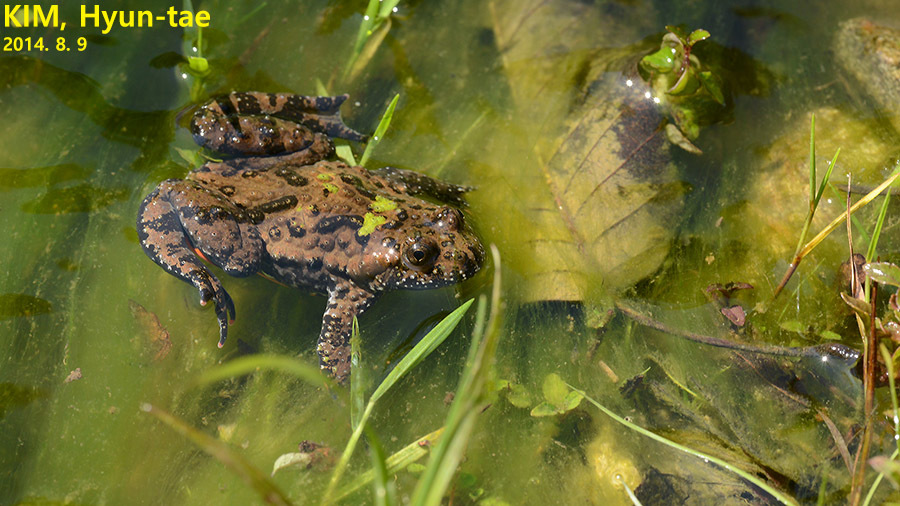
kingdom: Animalia
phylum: Chordata
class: Amphibia
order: Anura
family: Bombinatoridae
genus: Bombina
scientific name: Bombina orientalis
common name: Oriental firebelly toad
